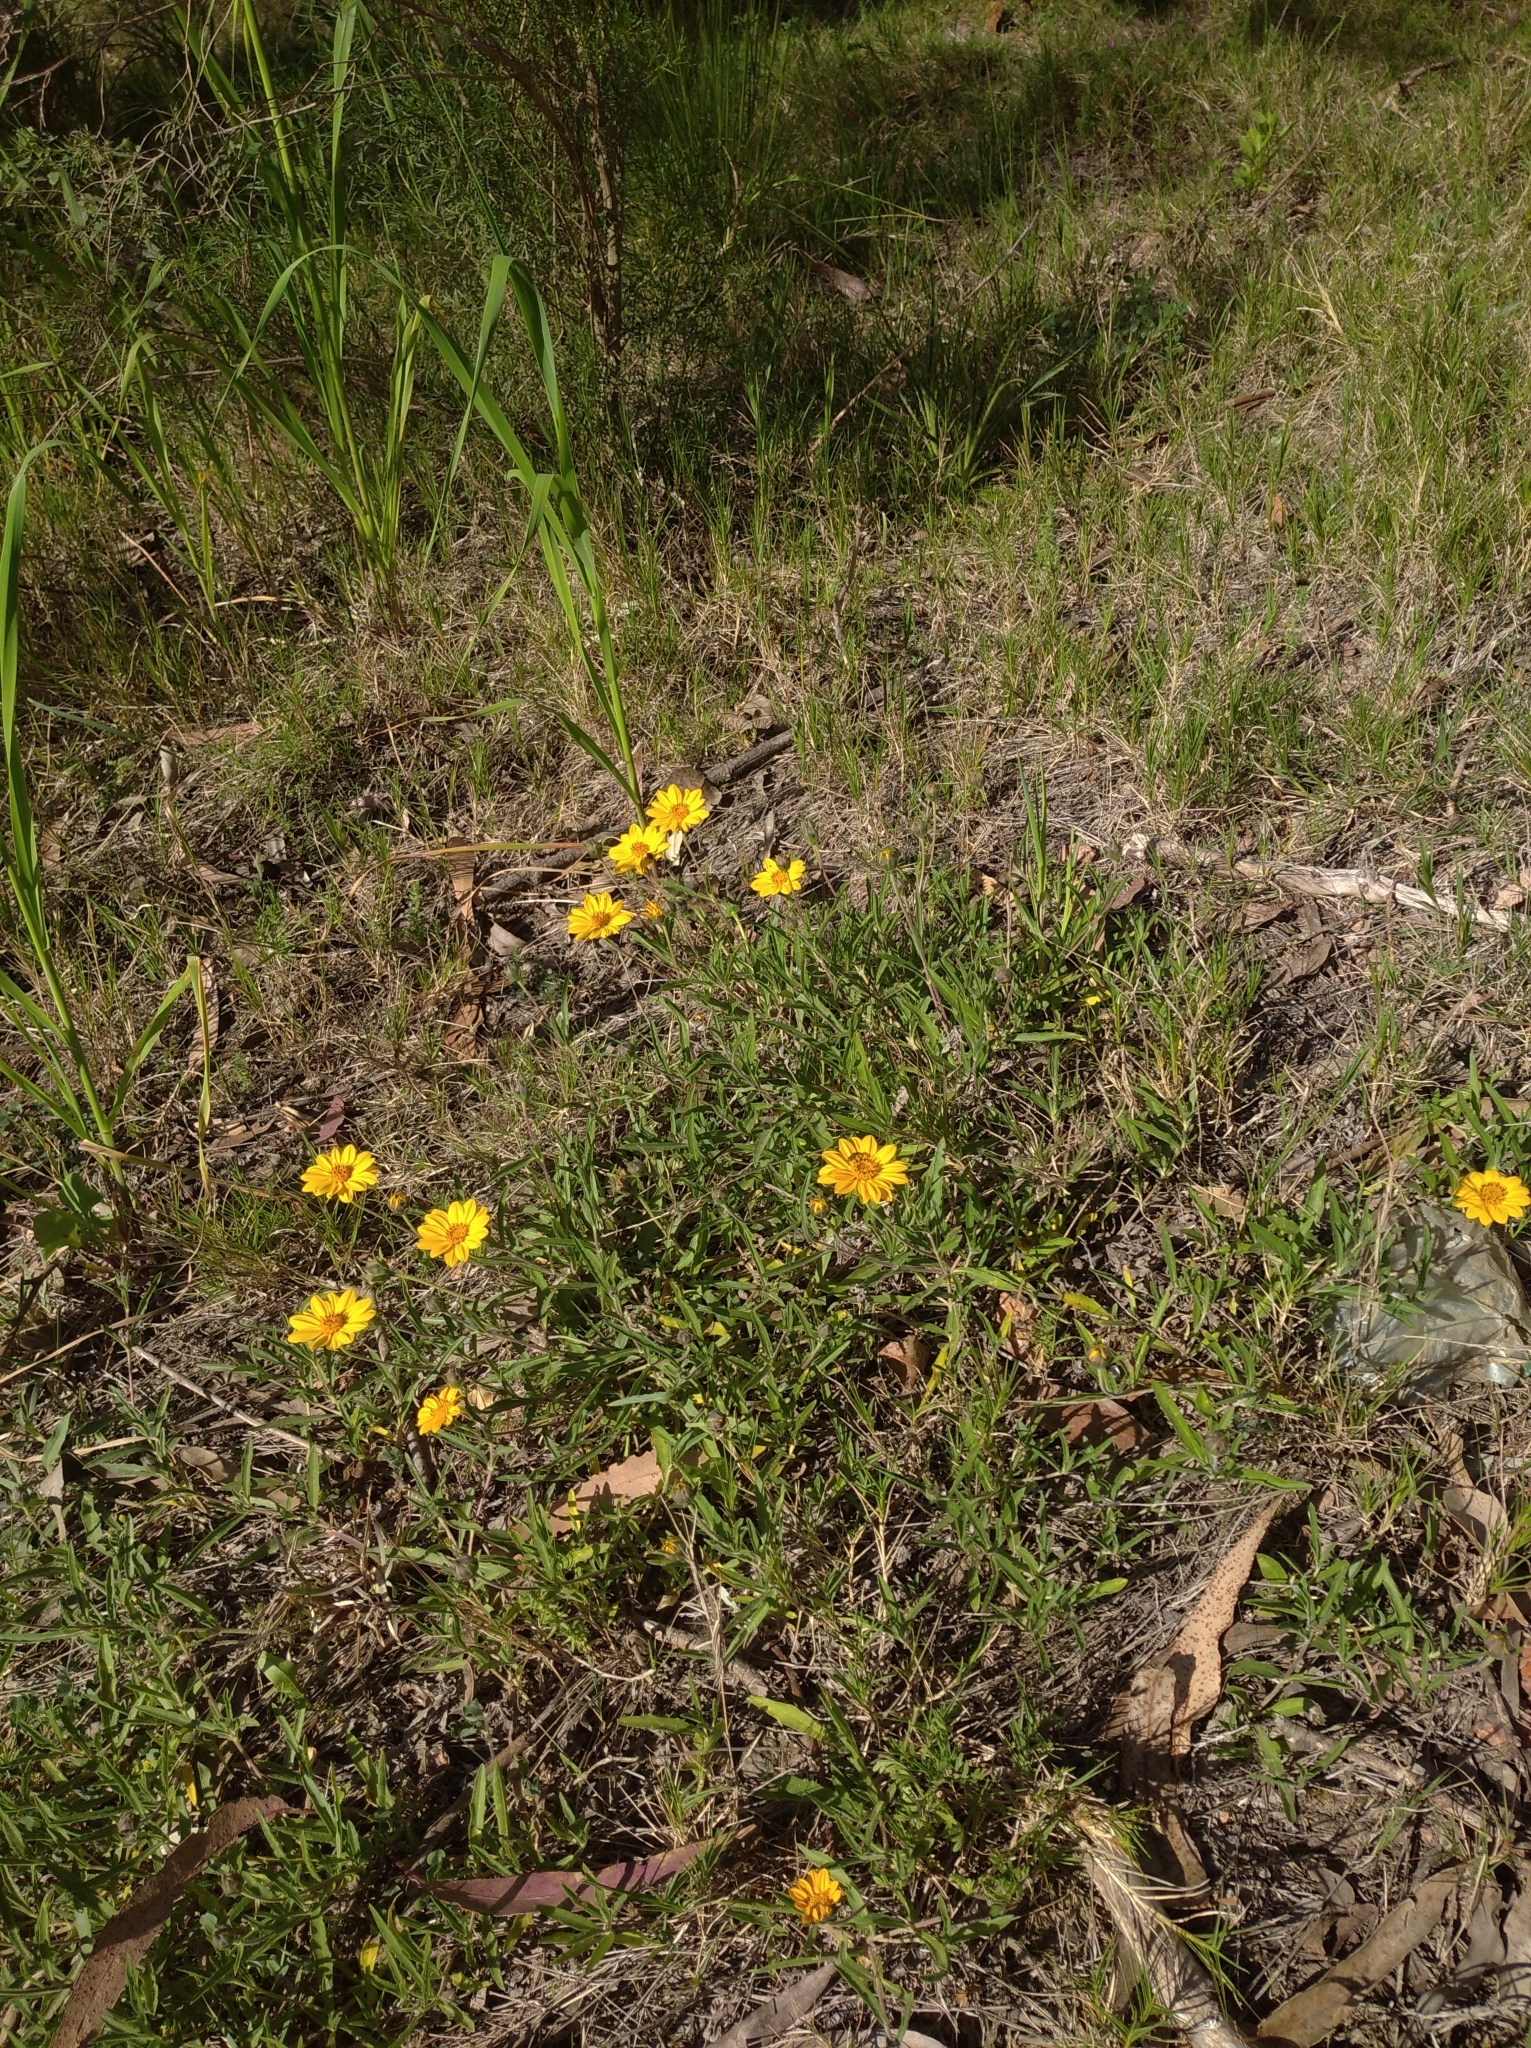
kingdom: Plantae
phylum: Tracheophyta
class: Magnoliopsida
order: Asterales
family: Asteraceae
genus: Wedelia
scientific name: Wedelia montevidensis
